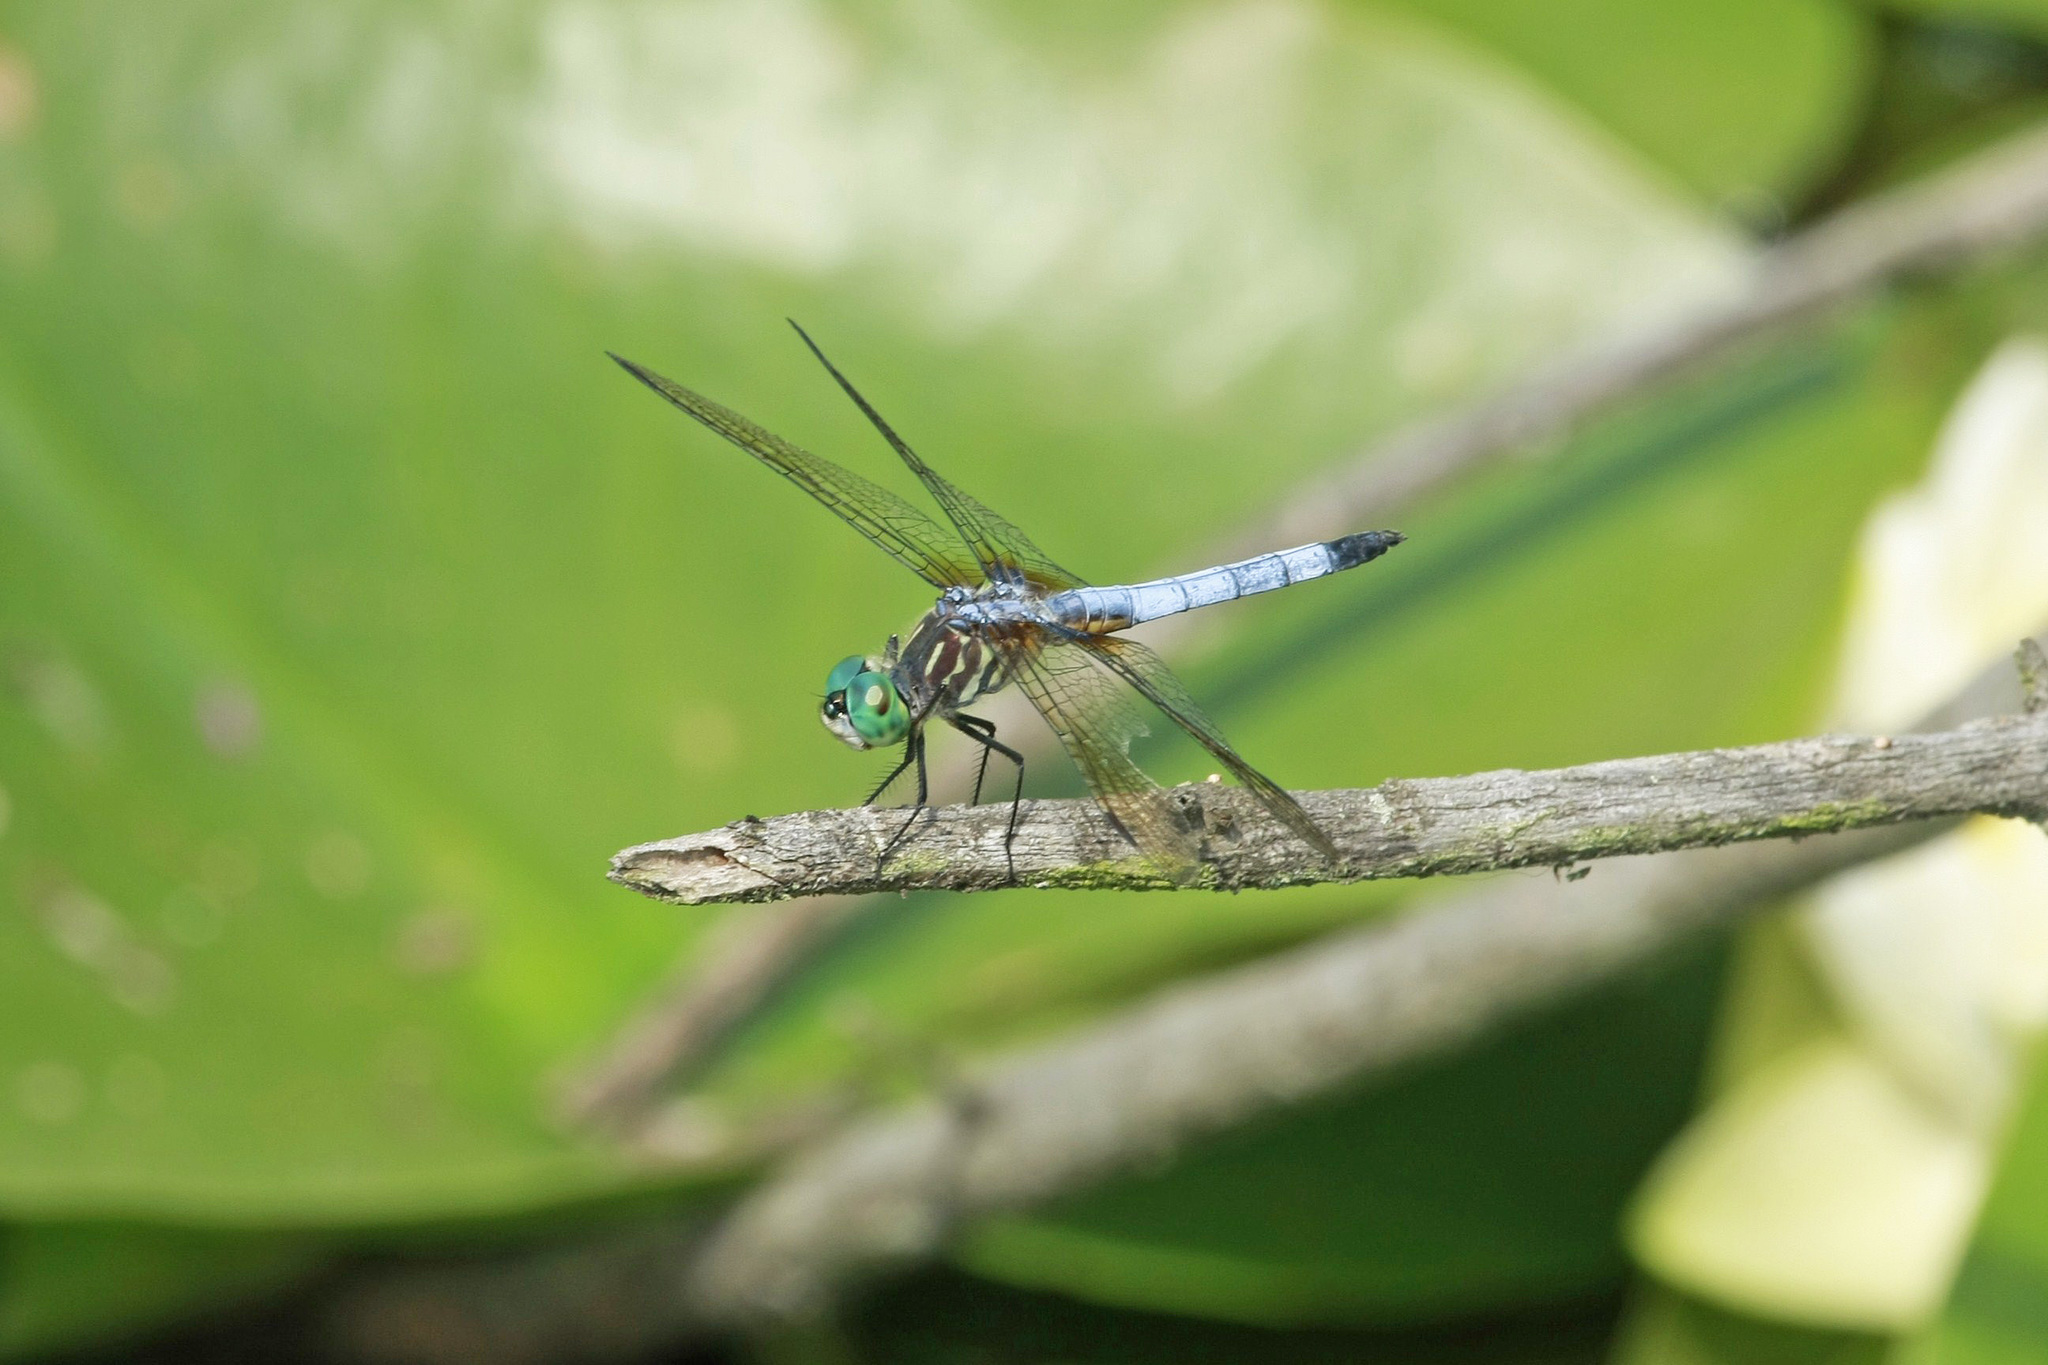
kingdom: Animalia
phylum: Arthropoda
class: Insecta
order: Odonata
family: Libellulidae
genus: Pachydiplax
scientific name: Pachydiplax longipennis
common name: Blue dasher
